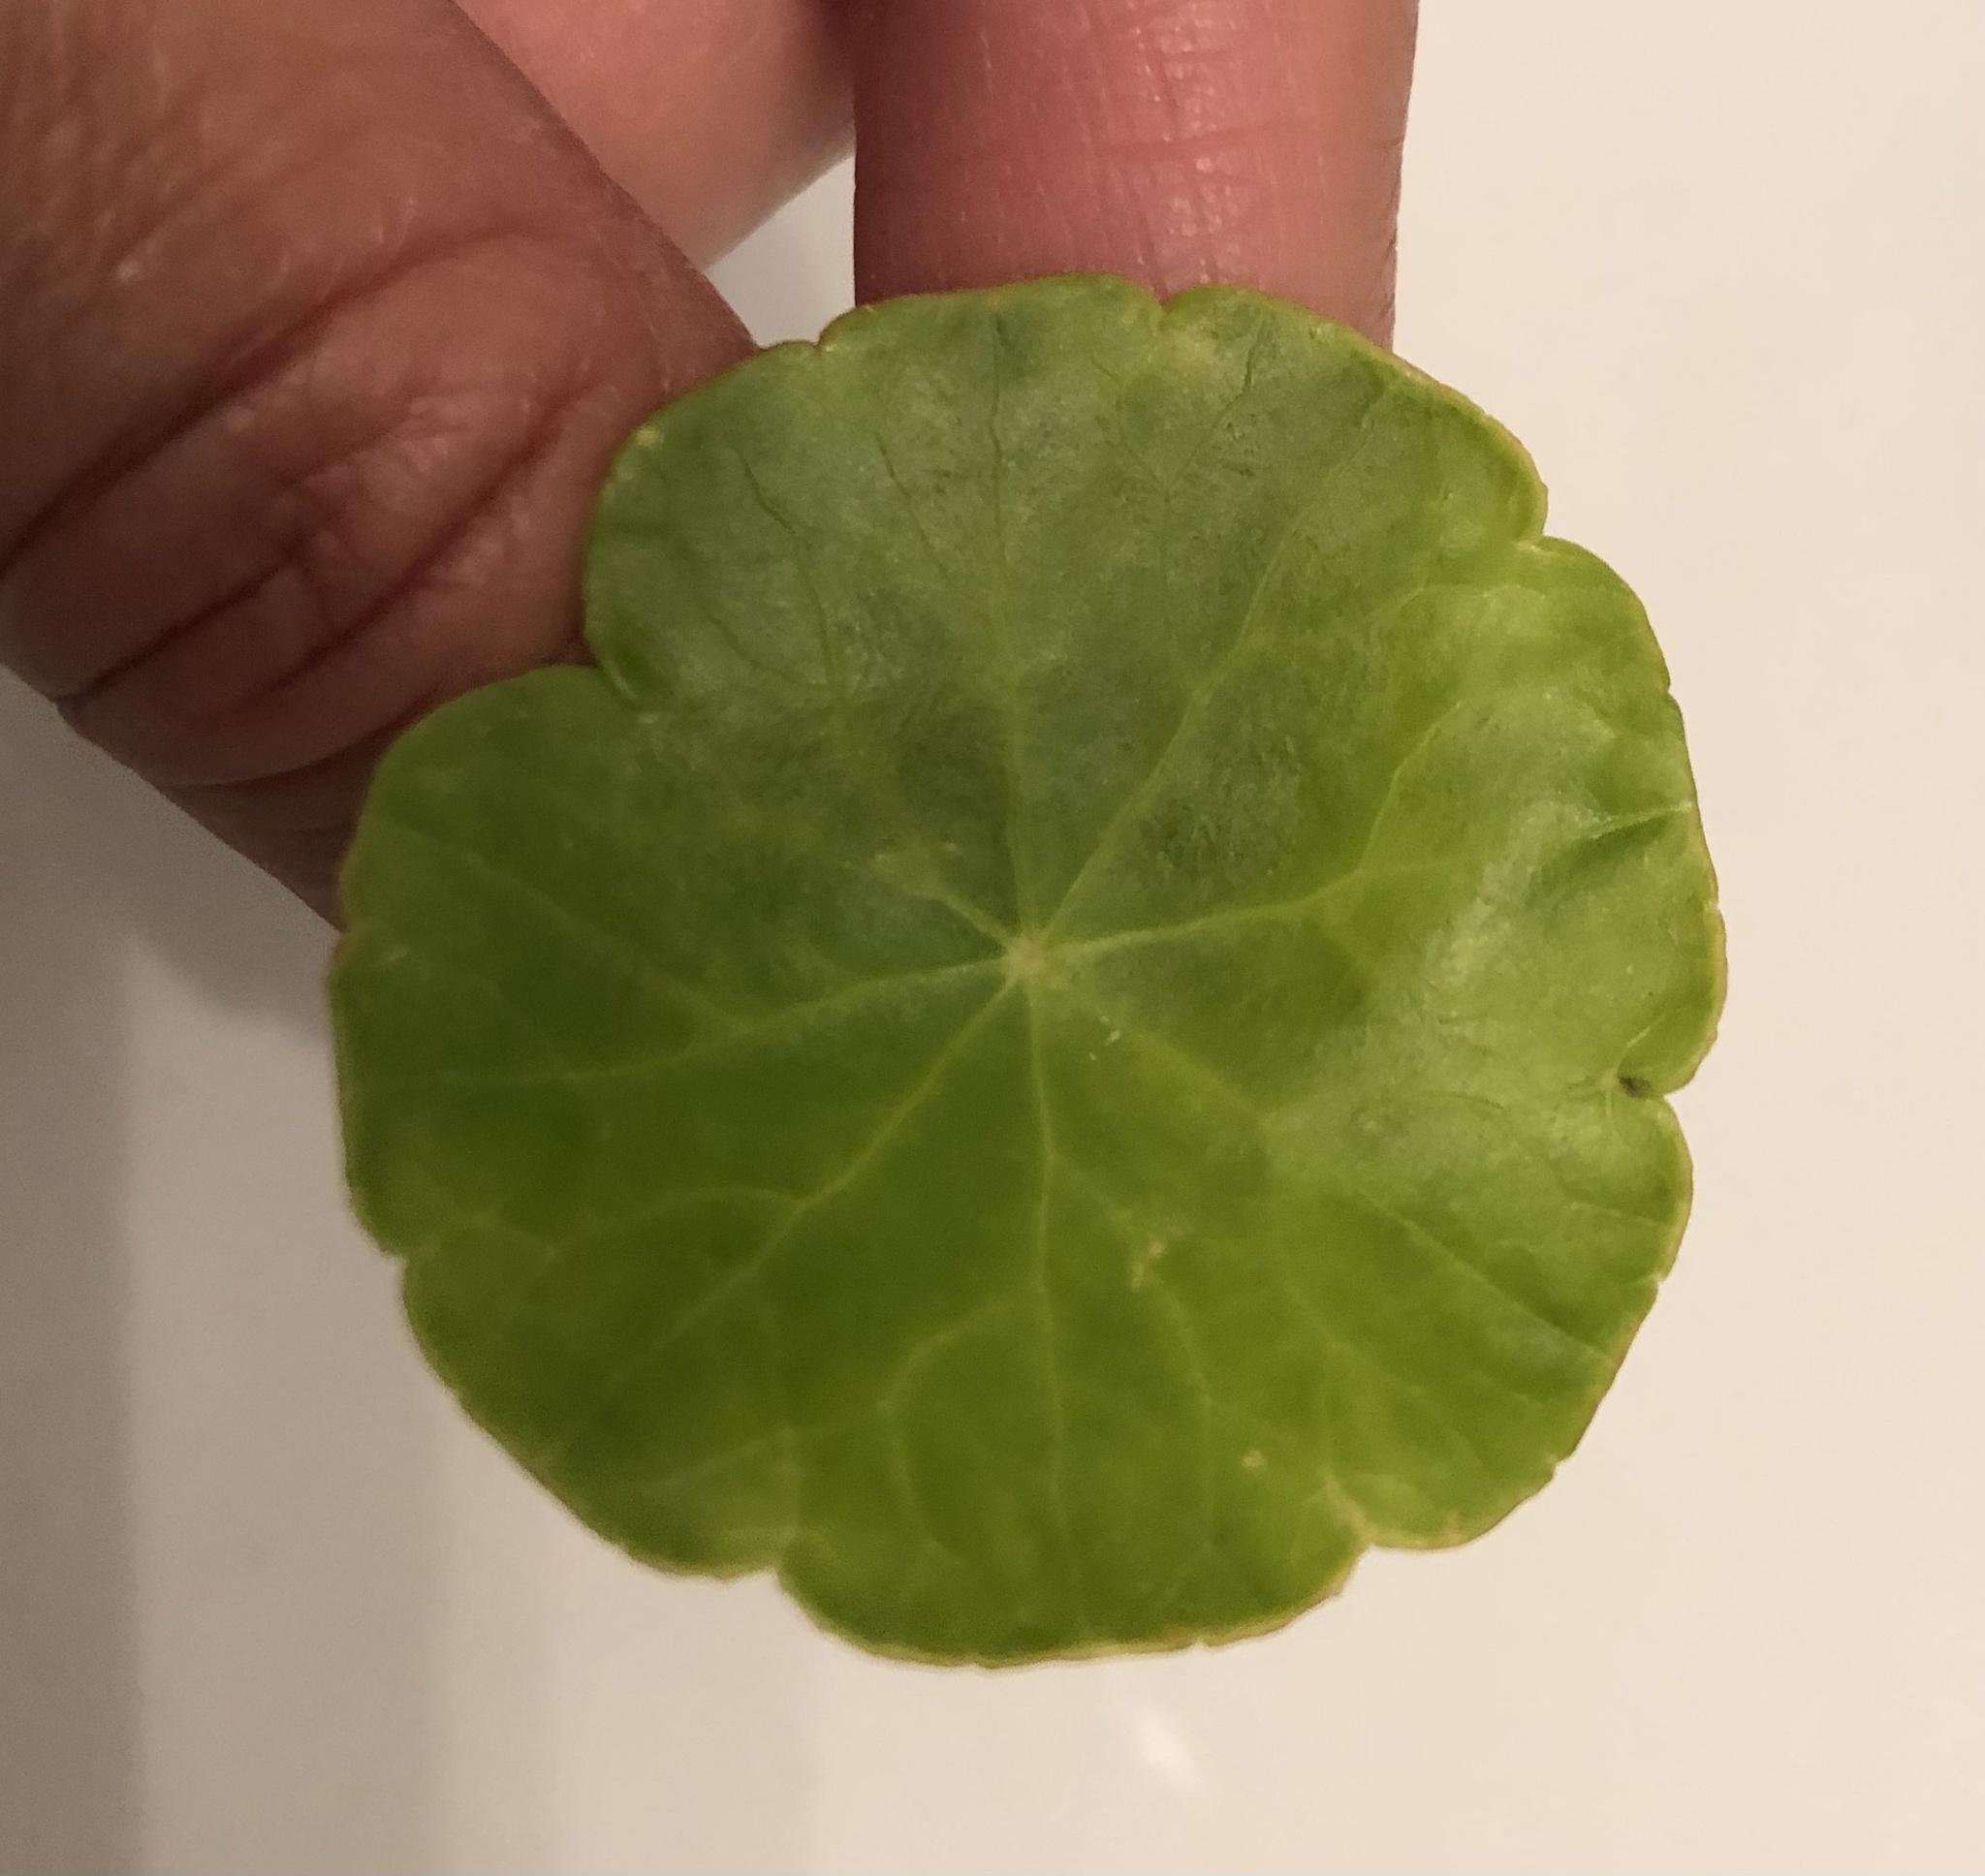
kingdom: Plantae
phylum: Tracheophyta
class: Magnoliopsida
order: Apiales
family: Araliaceae
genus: Hydrocotyle
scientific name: Hydrocotyle vulgaris
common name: Marsh pennywort
